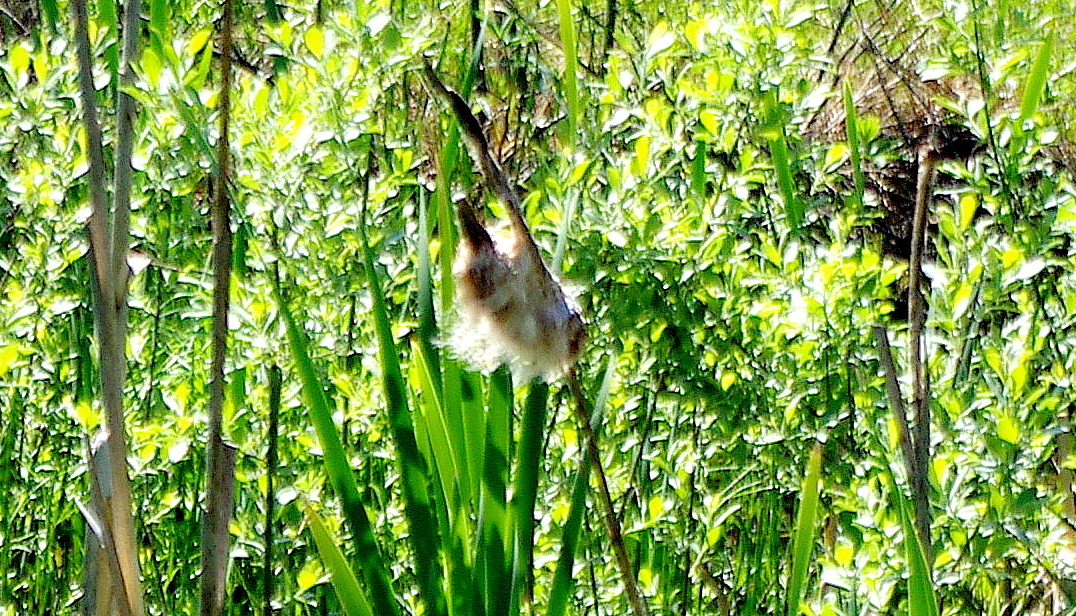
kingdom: Plantae
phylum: Tracheophyta
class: Liliopsida
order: Poales
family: Typhaceae
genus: Typha
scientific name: Typha latifolia
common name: Broadleaf cattail
